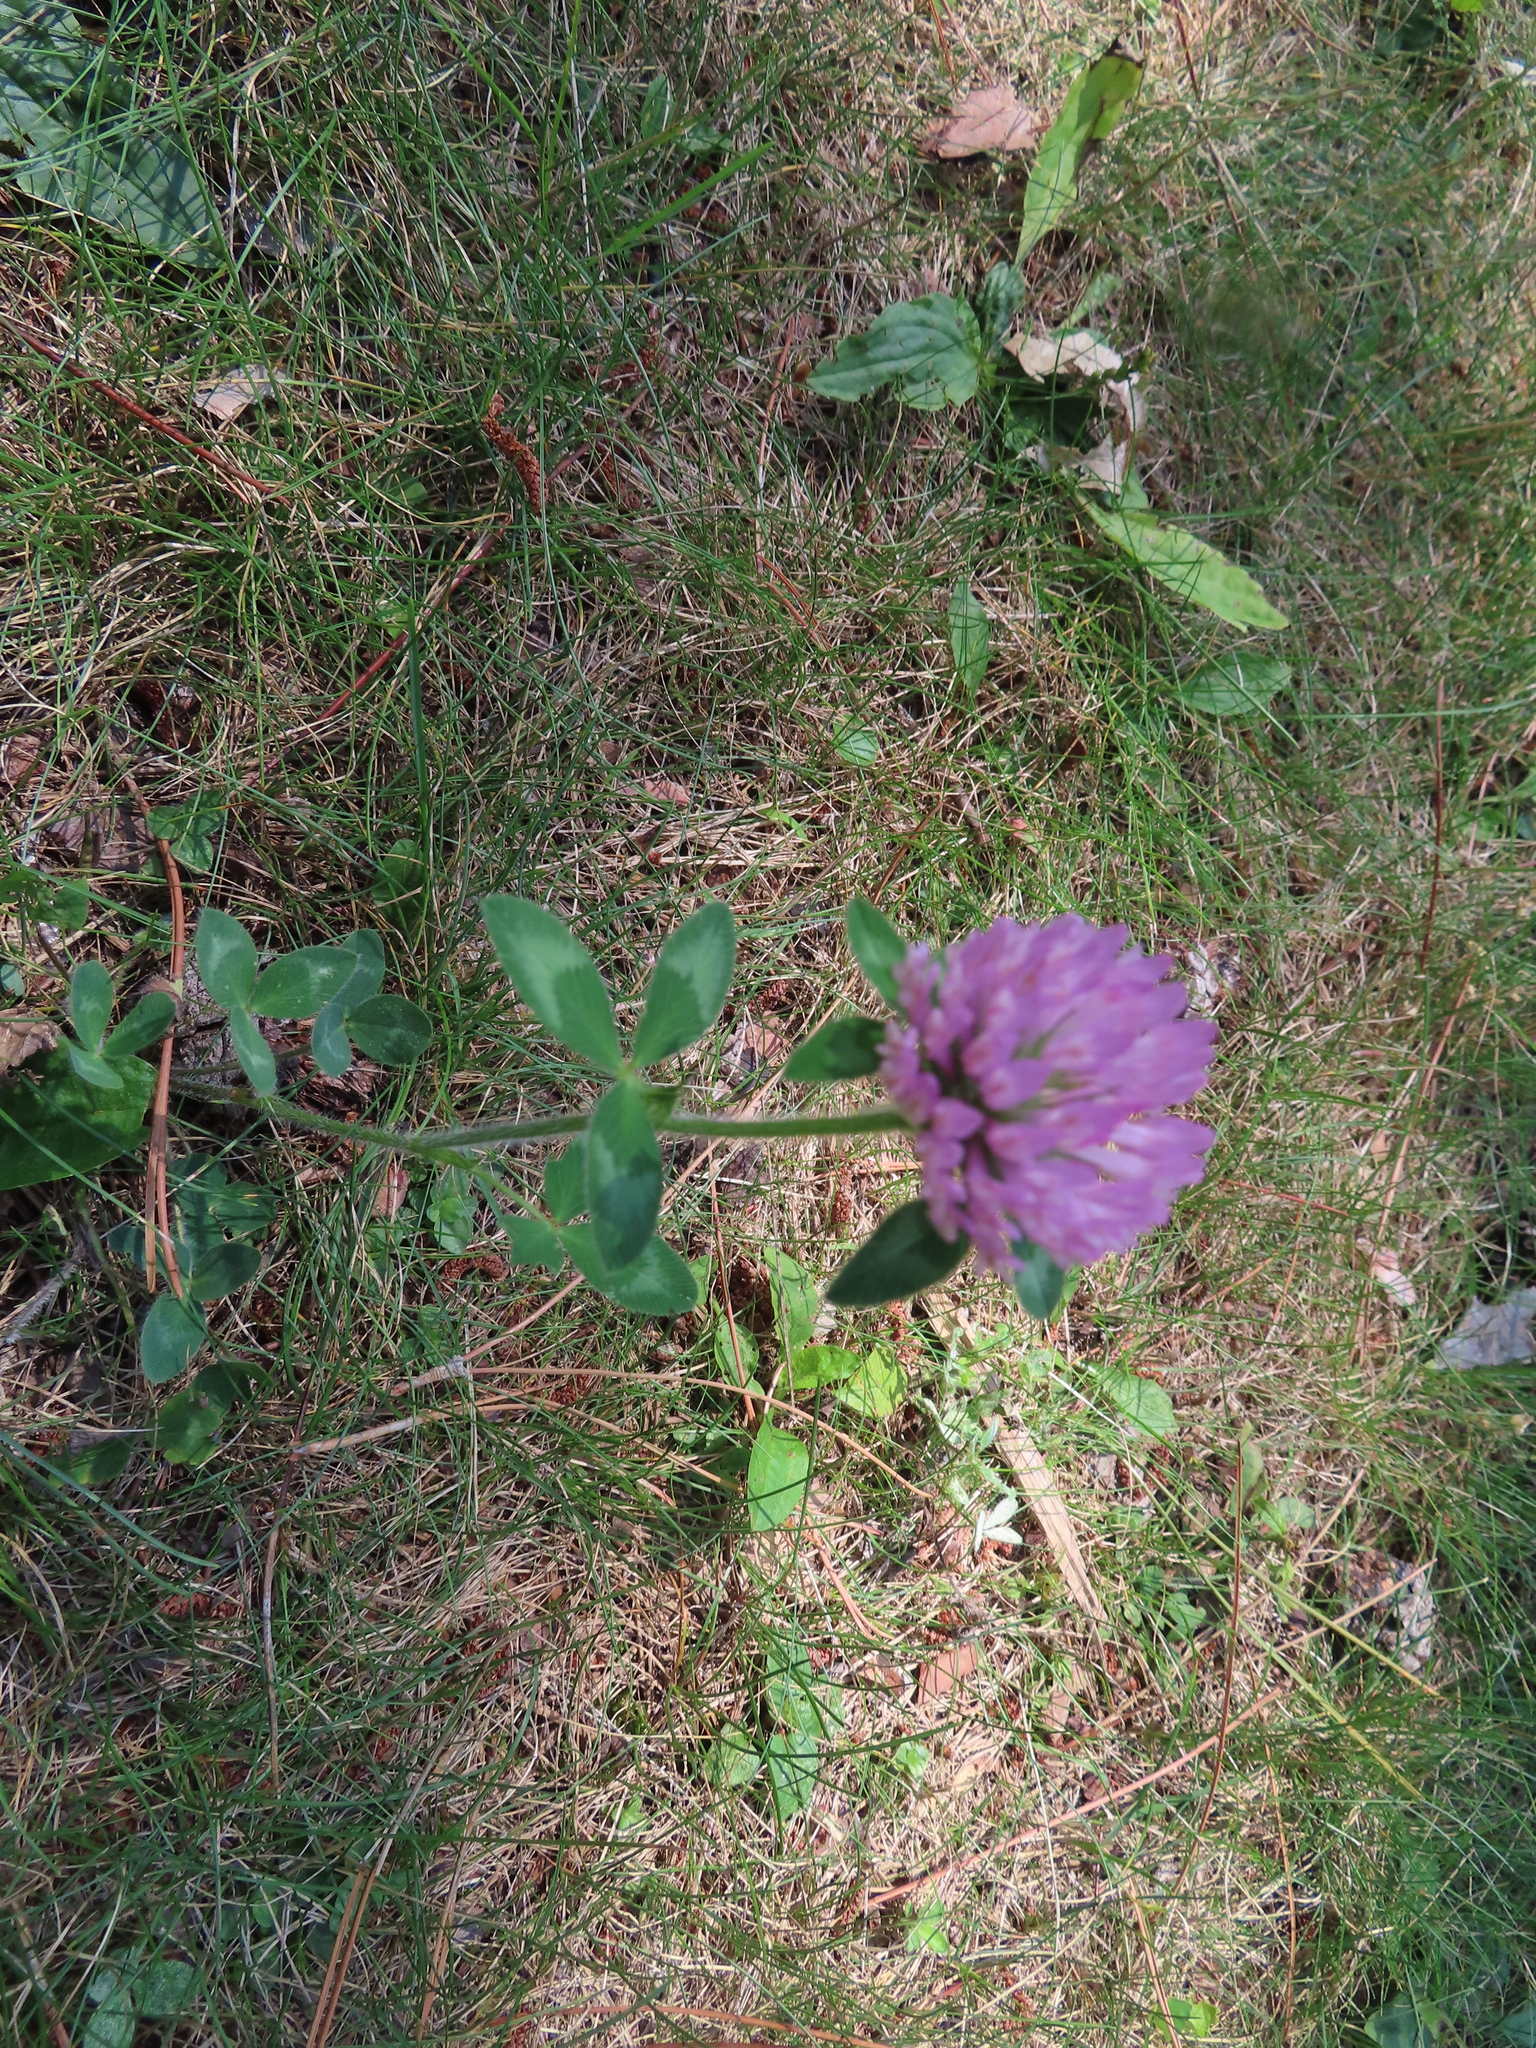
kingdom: Plantae
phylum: Tracheophyta
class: Magnoliopsida
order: Fabales
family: Fabaceae
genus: Trifolium
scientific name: Trifolium pratense
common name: Red clover
